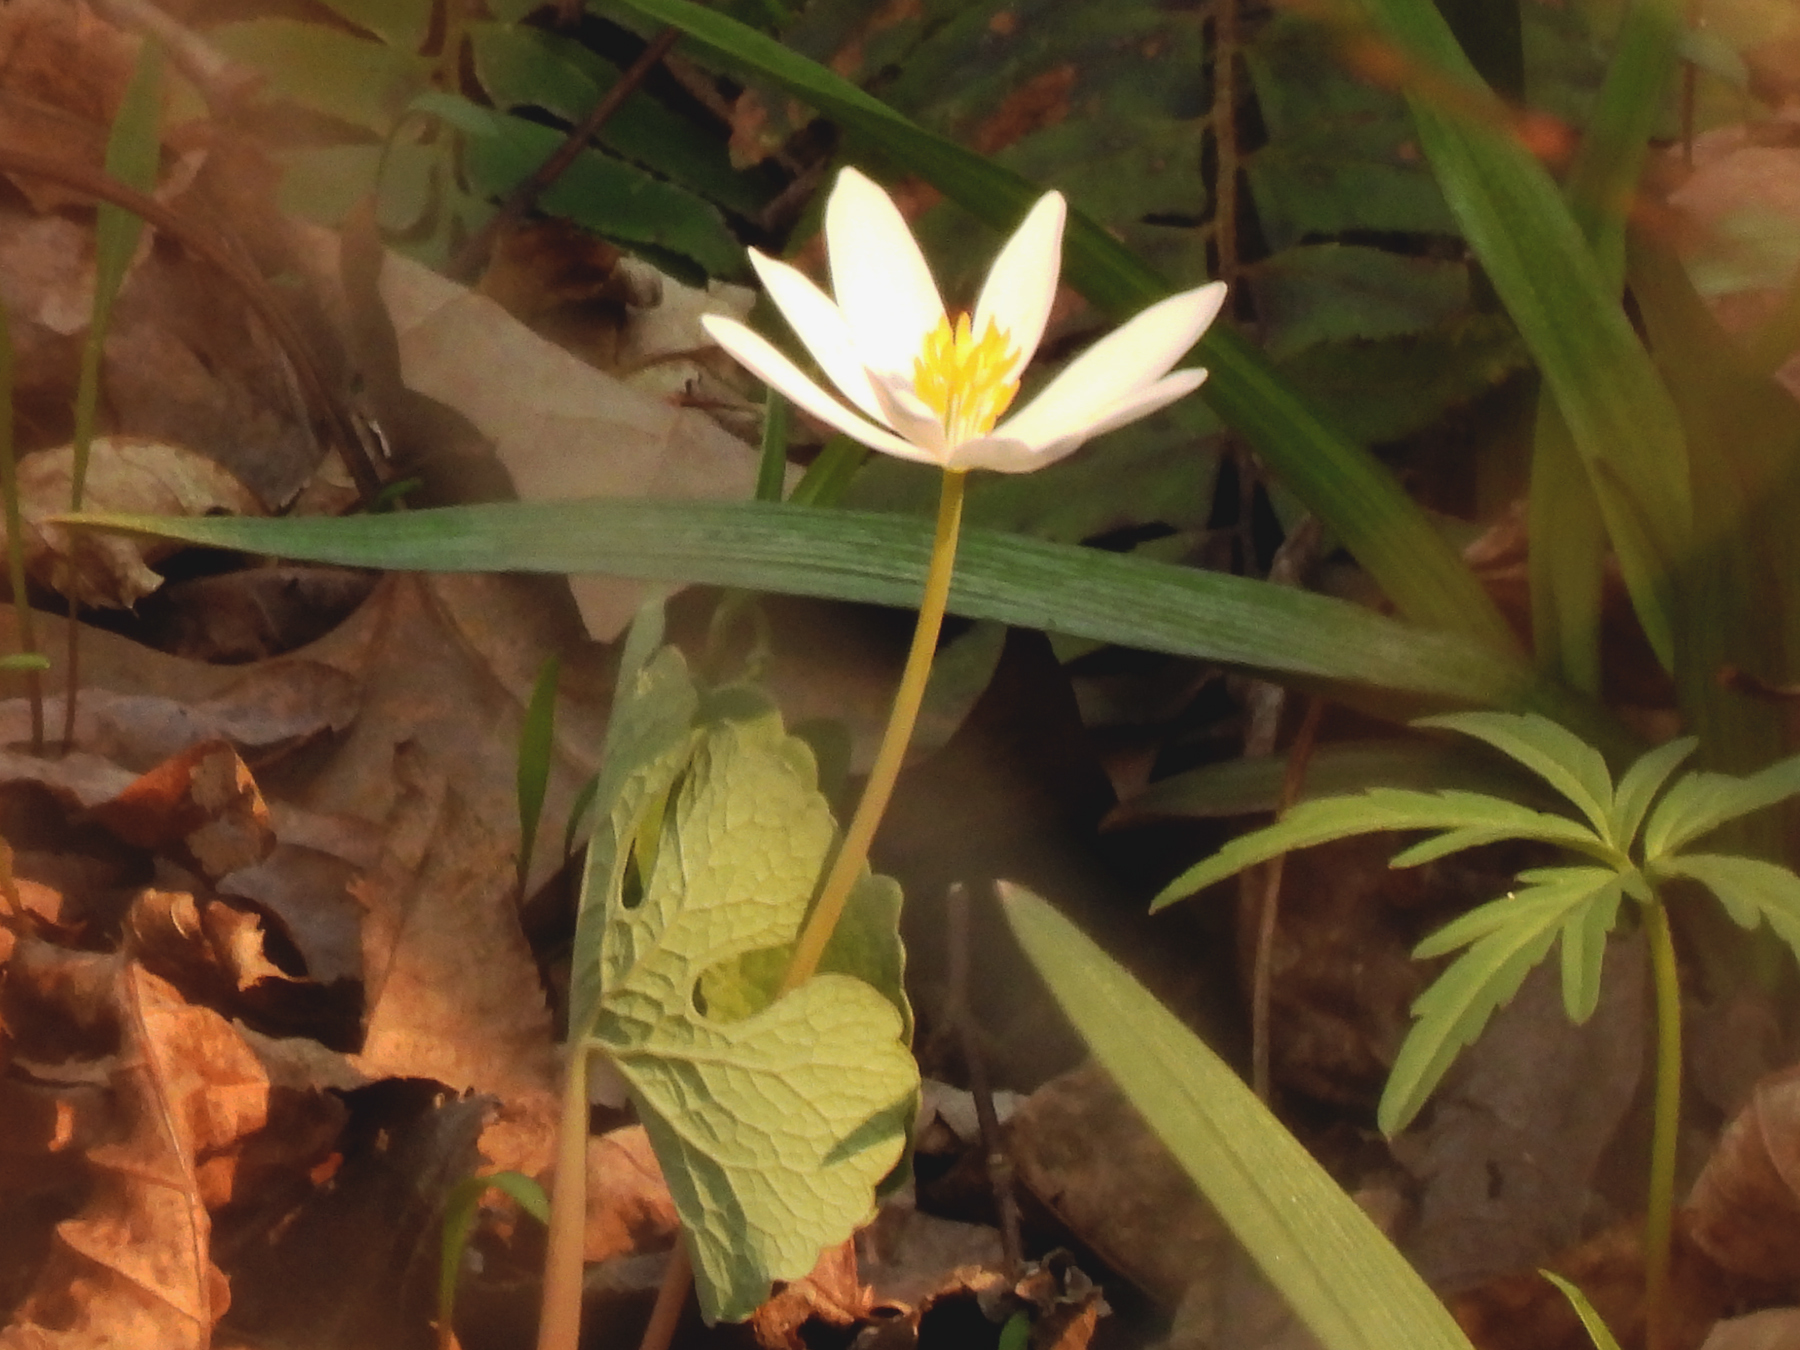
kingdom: Plantae
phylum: Tracheophyta
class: Magnoliopsida
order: Ranunculales
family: Papaveraceae
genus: Sanguinaria
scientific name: Sanguinaria canadensis
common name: Bloodroot
